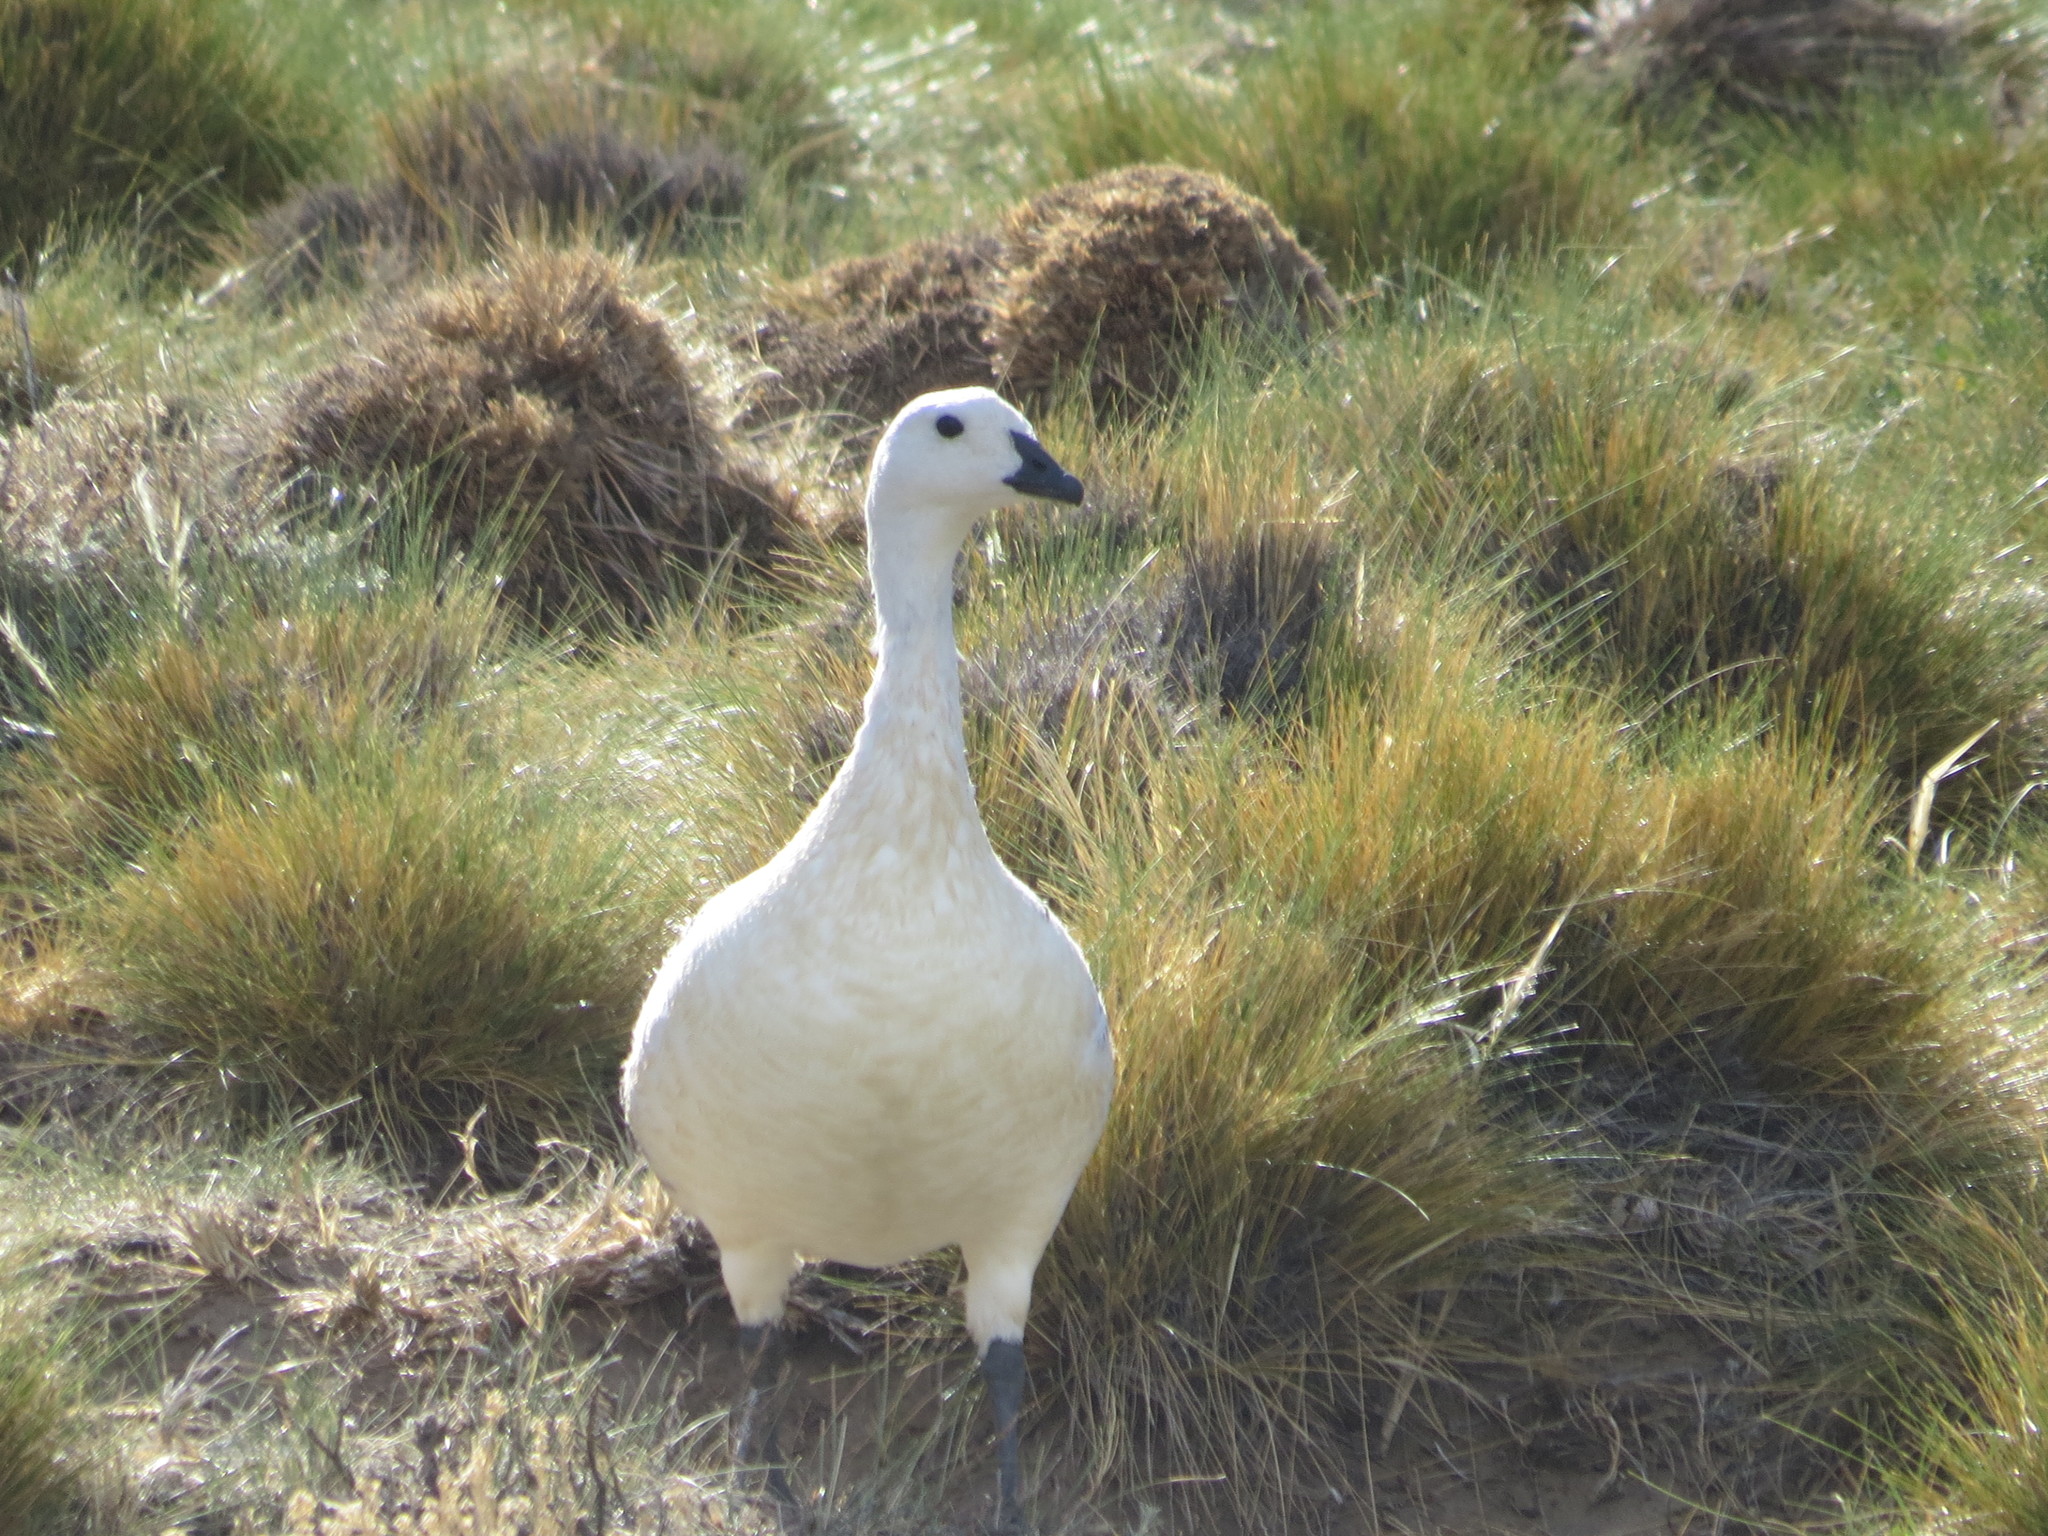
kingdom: Animalia
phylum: Chordata
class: Aves
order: Anseriformes
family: Anatidae
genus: Chloephaga
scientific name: Chloephaga picta
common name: Upland goose
